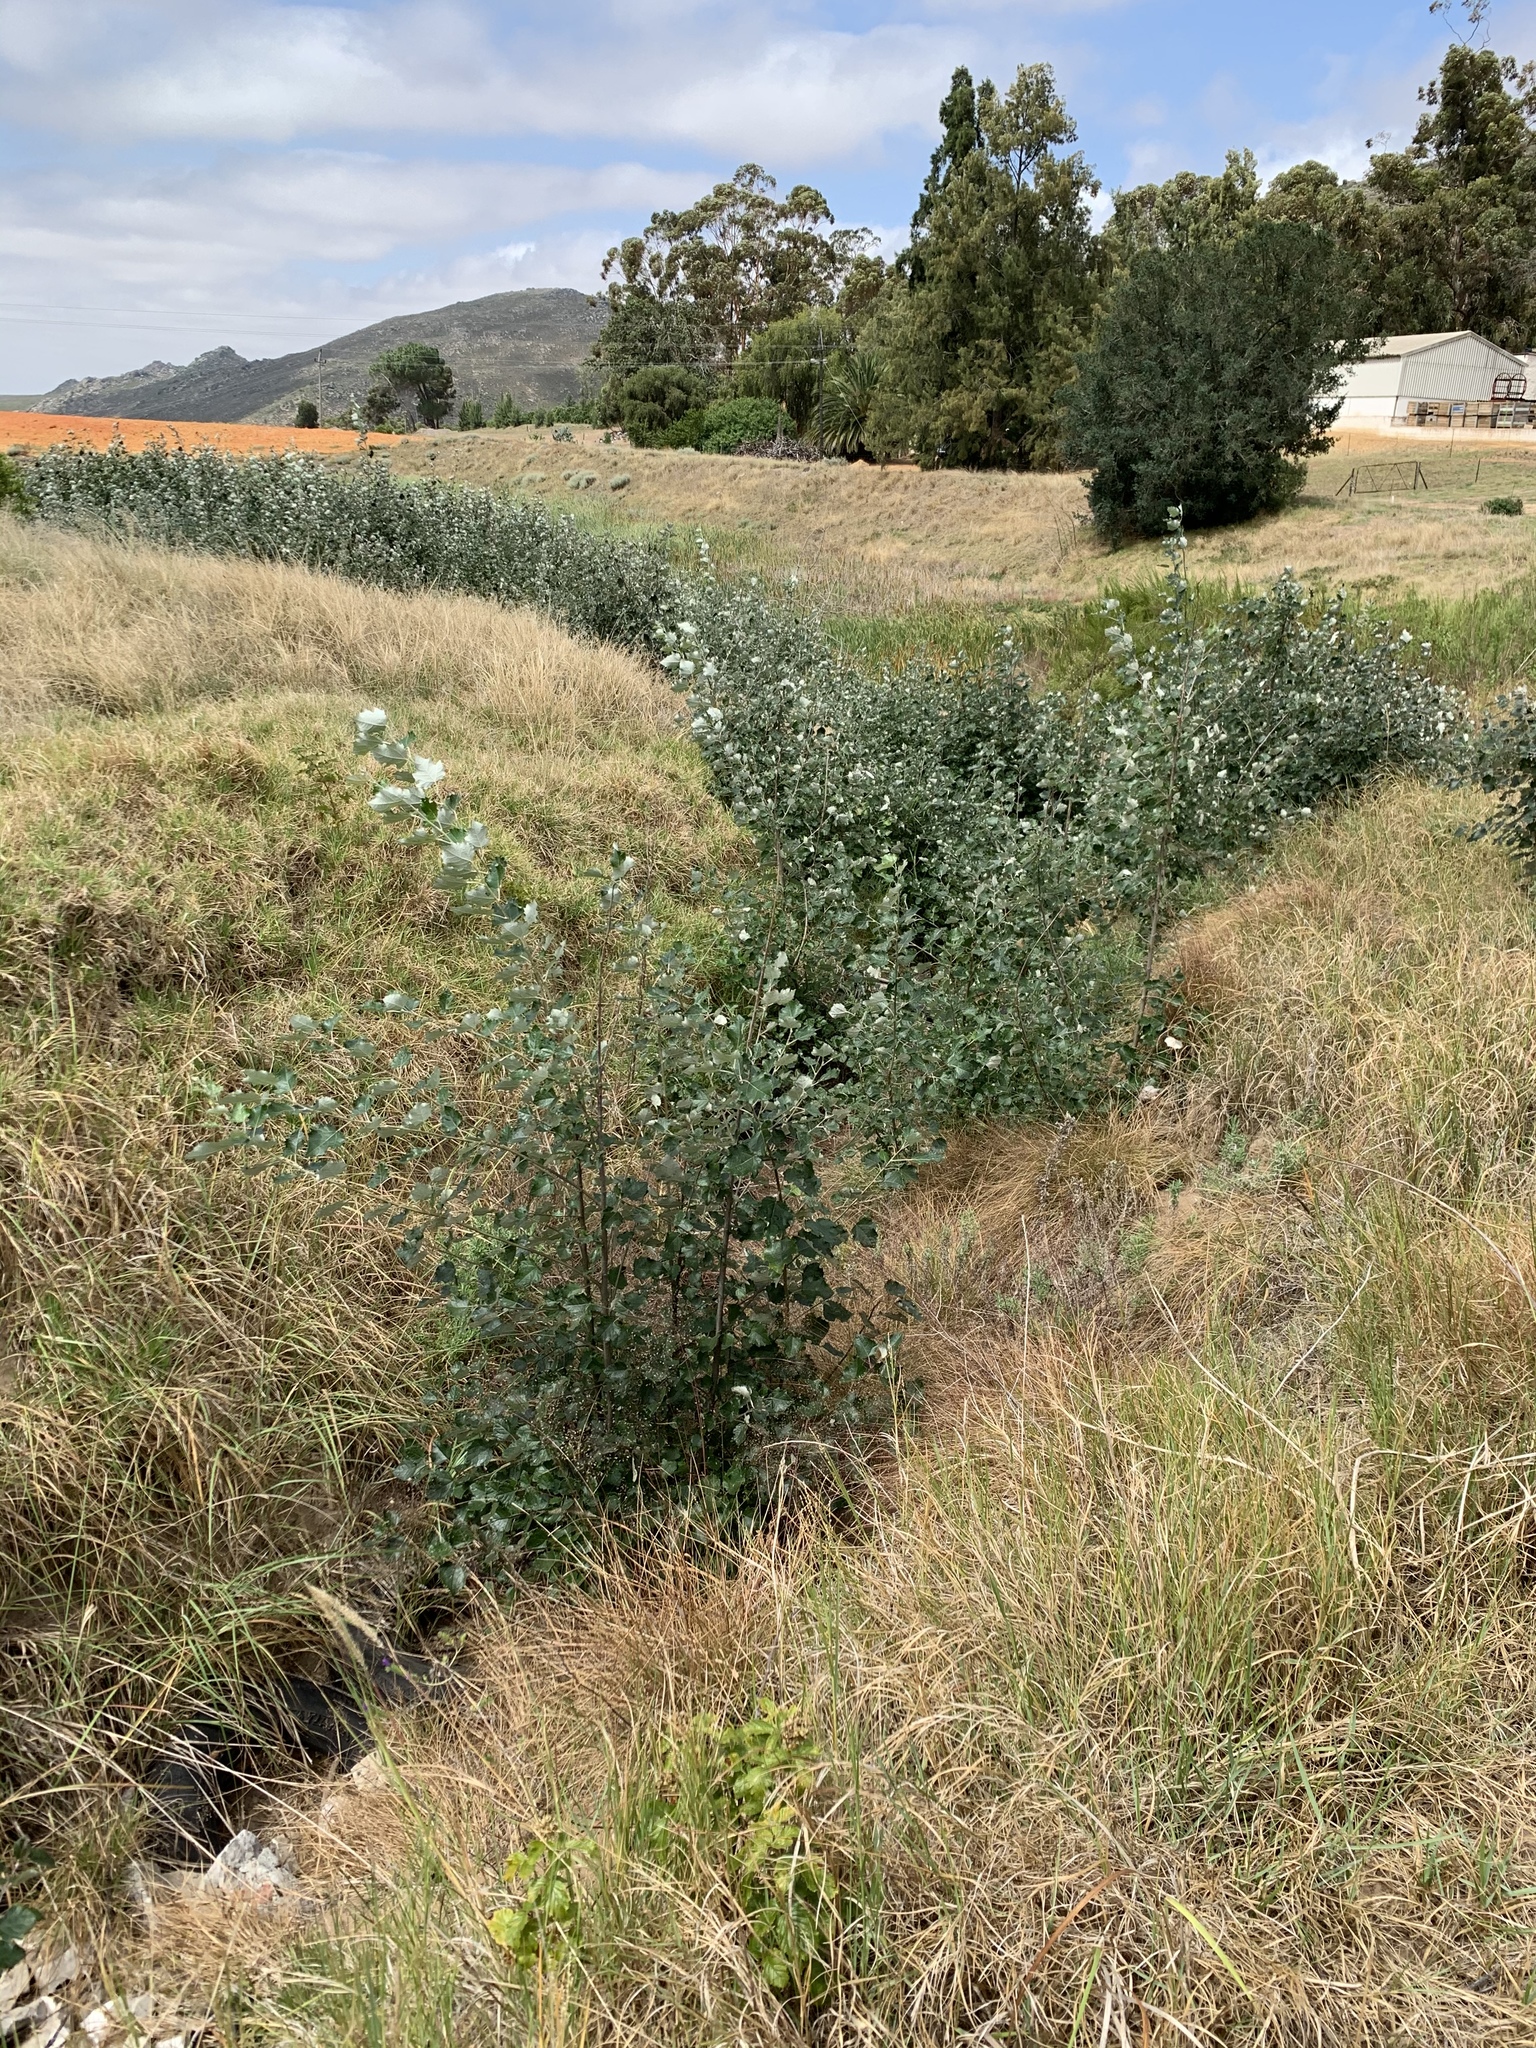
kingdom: Plantae
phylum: Tracheophyta
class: Magnoliopsida
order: Malpighiales
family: Salicaceae
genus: Populus
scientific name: Populus canescens
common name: Gray poplar
